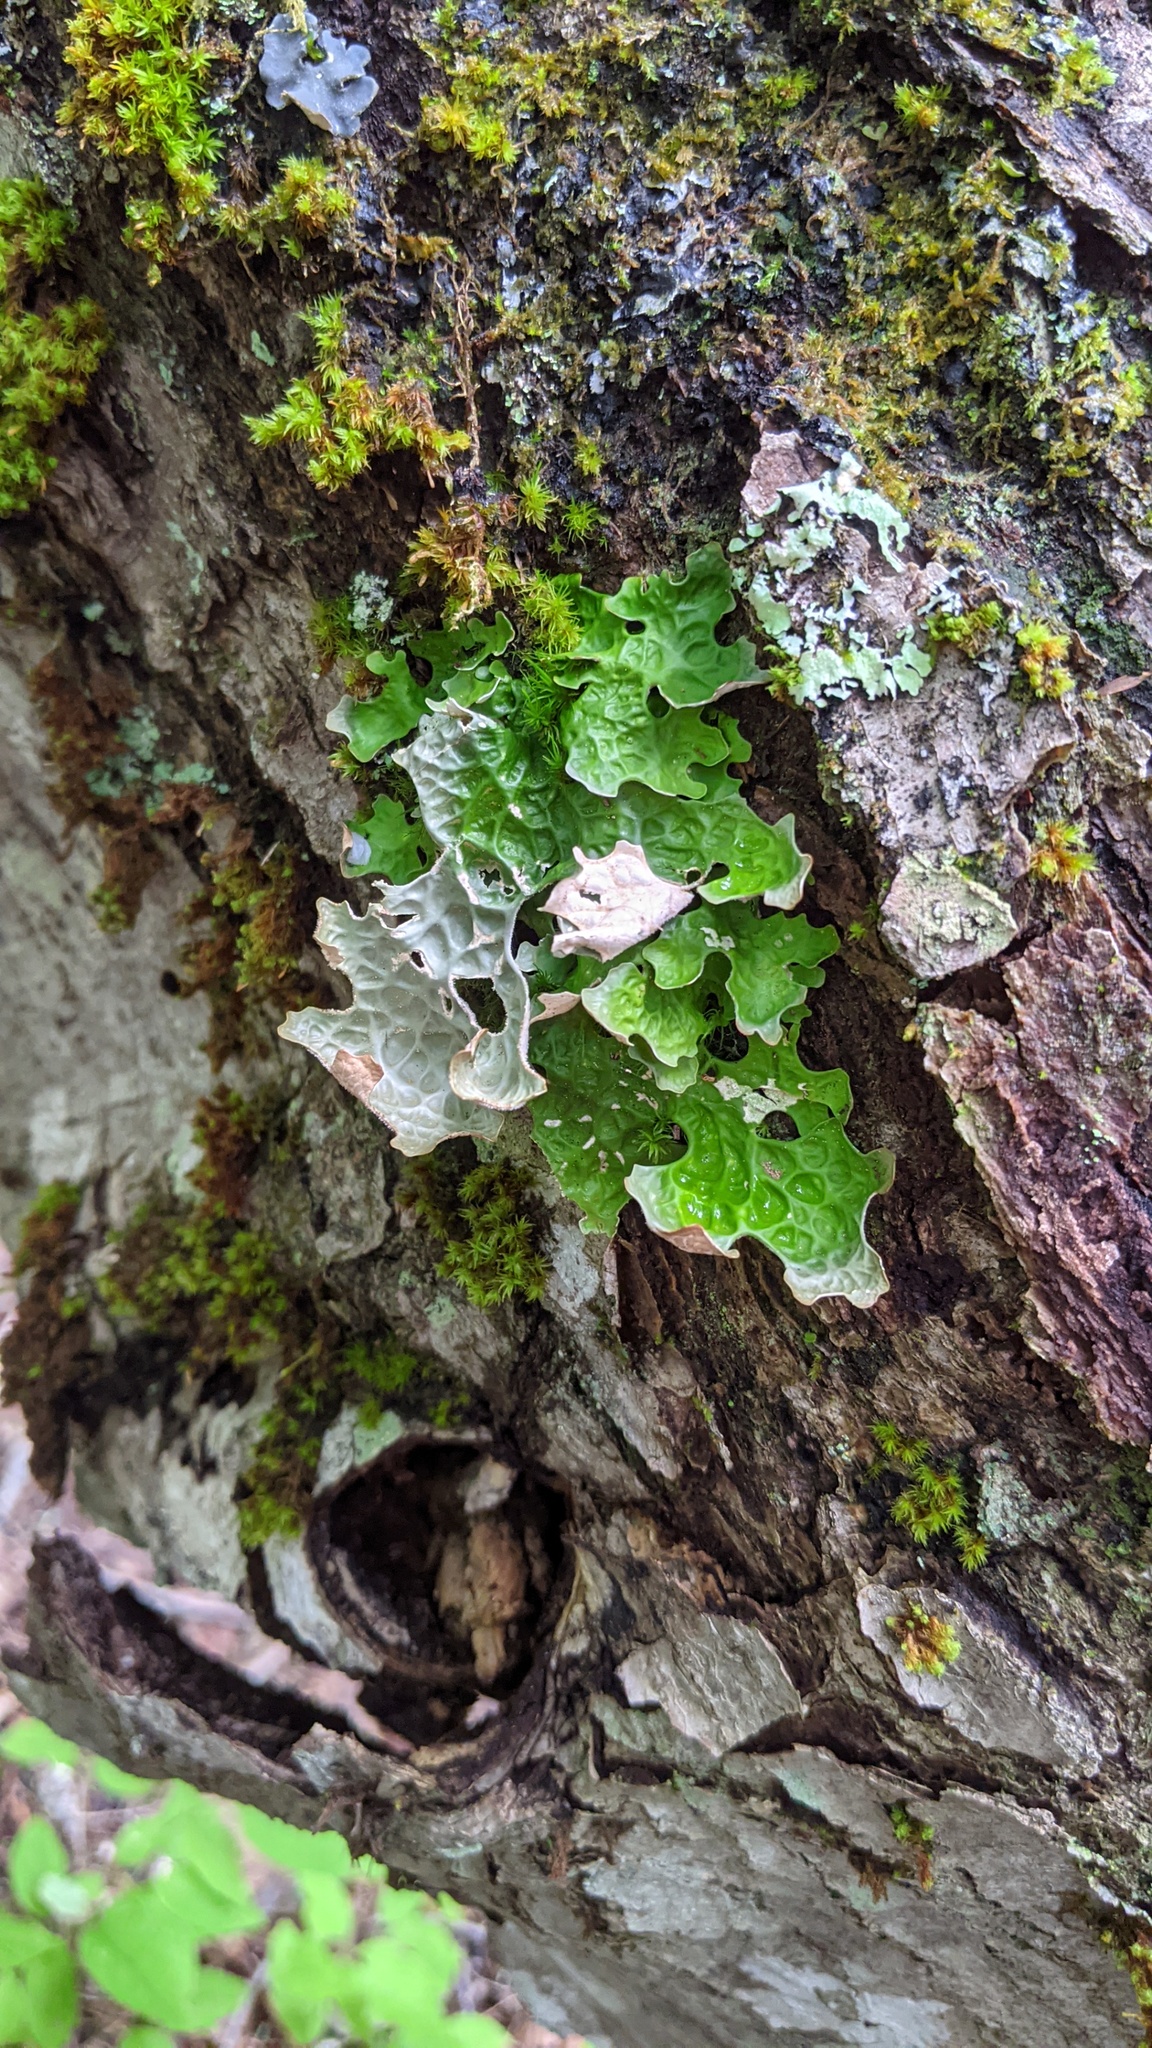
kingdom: Fungi
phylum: Ascomycota
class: Lecanoromycetes
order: Peltigerales
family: Lobariaceae
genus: Lobaria
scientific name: Lobaria pulmonaria
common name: Lungwort
